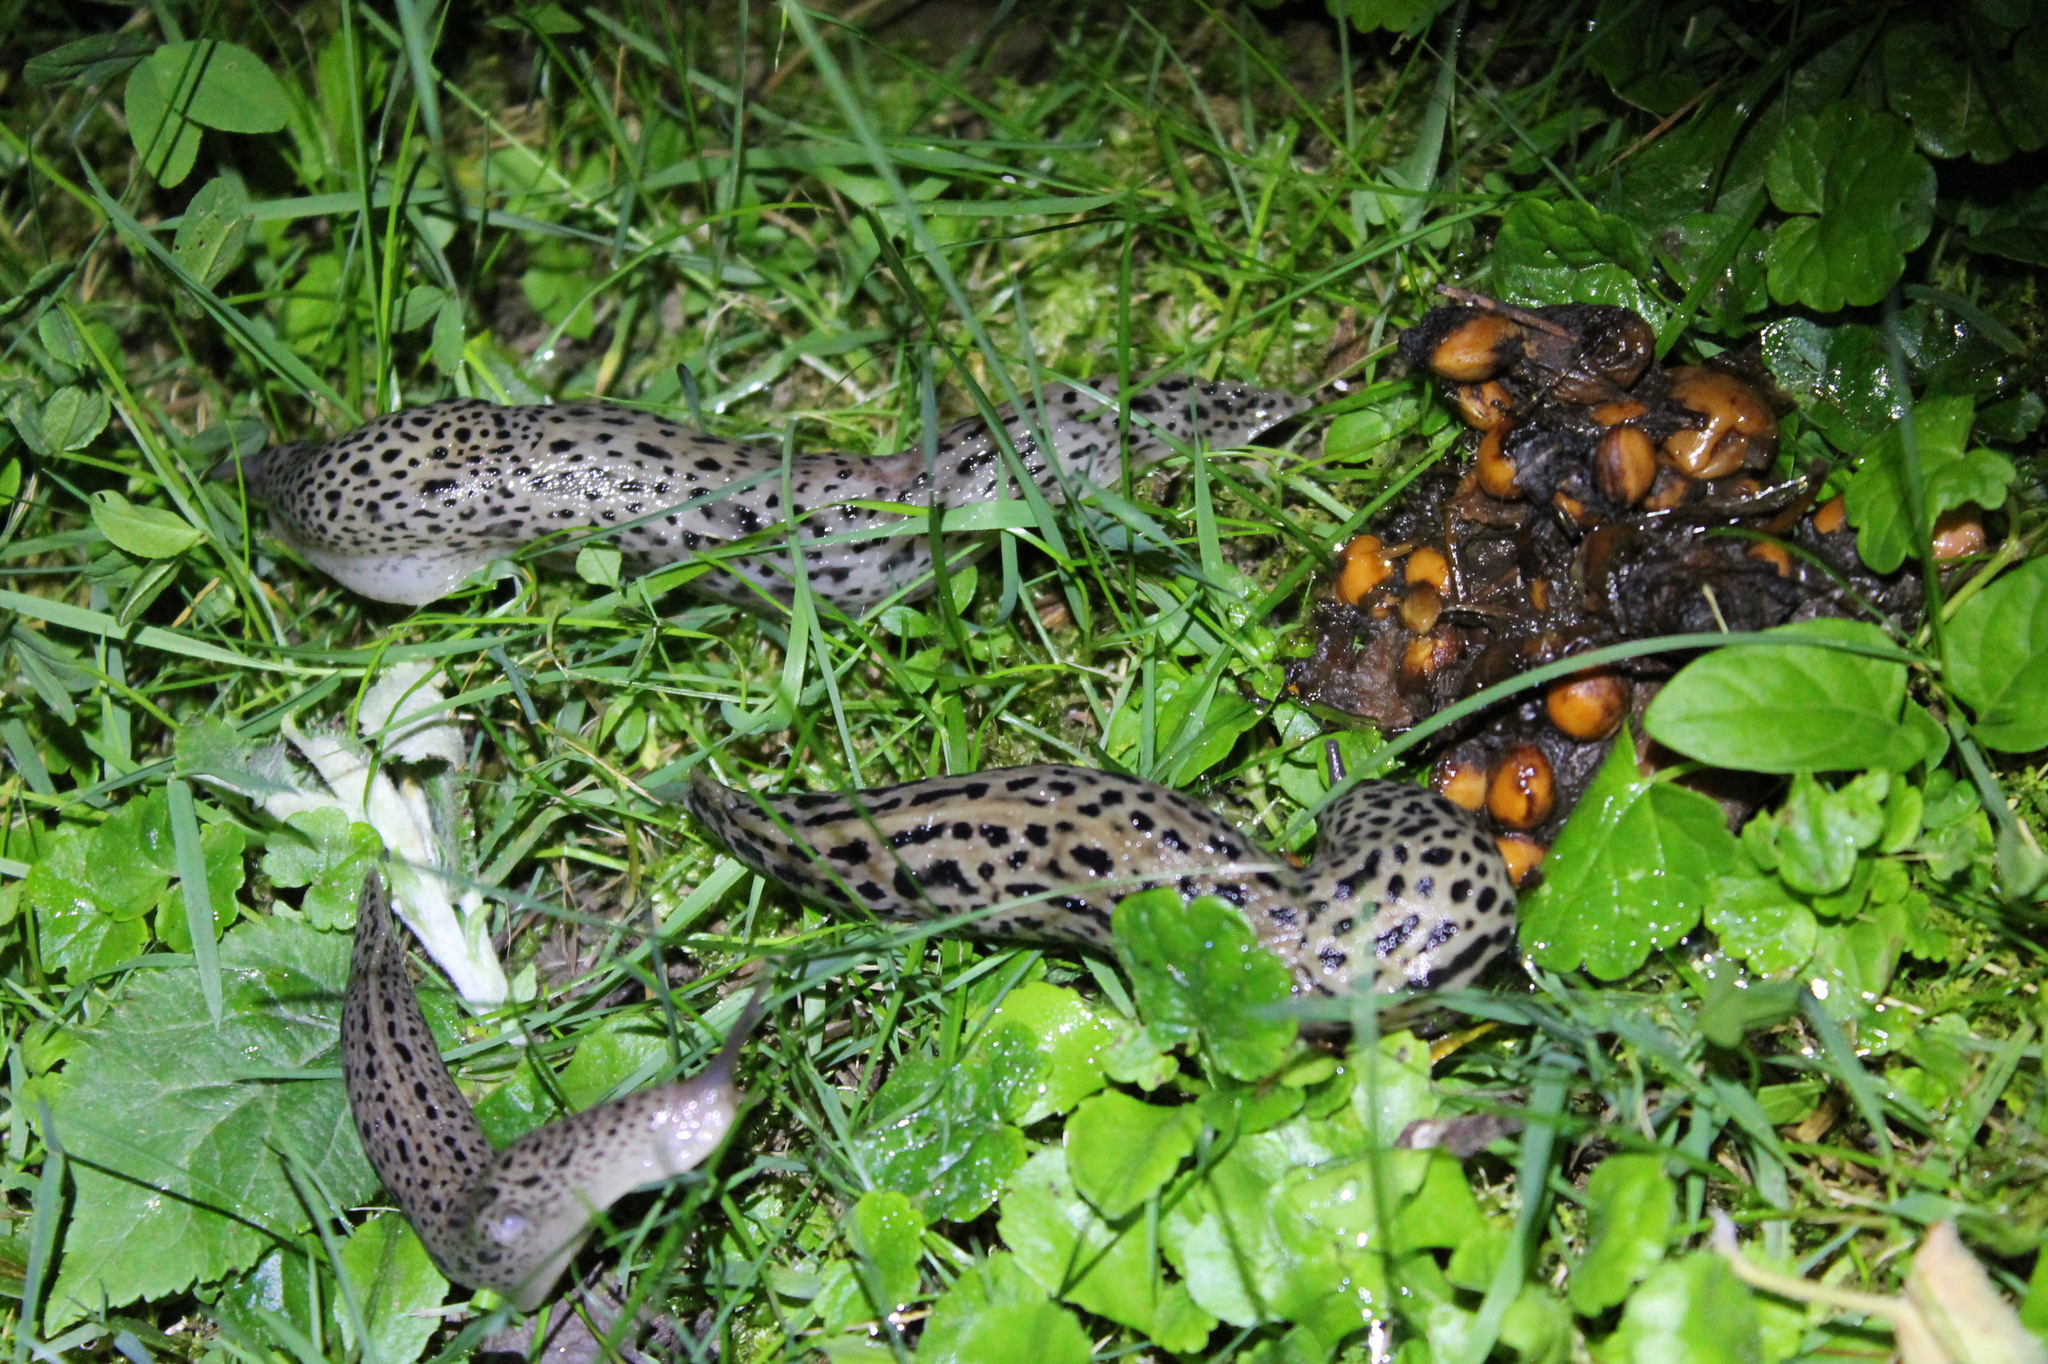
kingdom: Animalia
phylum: Mollusca
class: Gastropoda
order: Stylommatophora
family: Limacidae
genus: Limax
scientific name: Limax maximus
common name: Great grey slug
